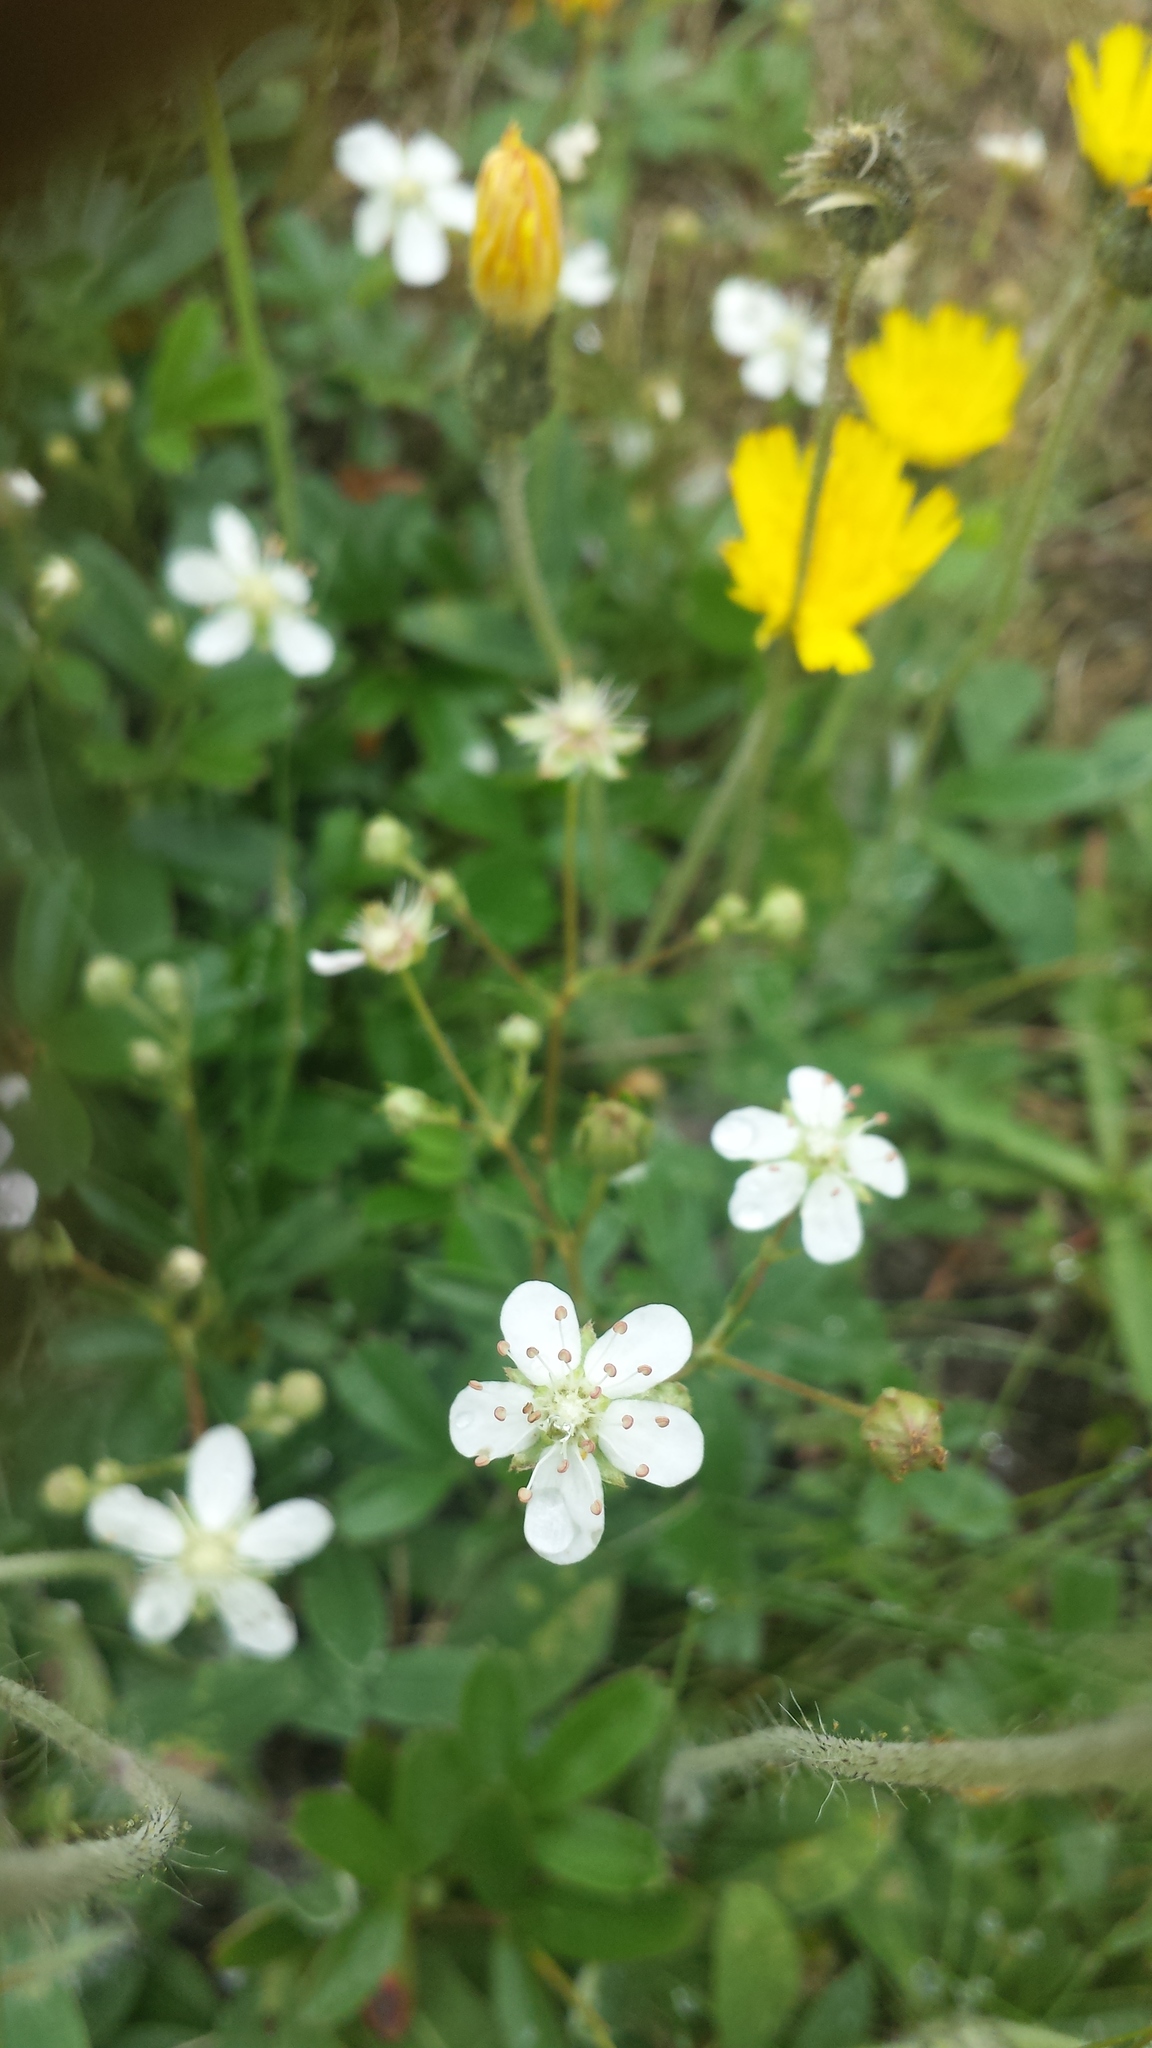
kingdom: Plantae
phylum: Tracheophyta
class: Magnoliopsida
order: Rosales
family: Rosaceae
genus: Sibbaldia
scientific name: Sibbaldia tridentata
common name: Three-toothed cinquefoil
